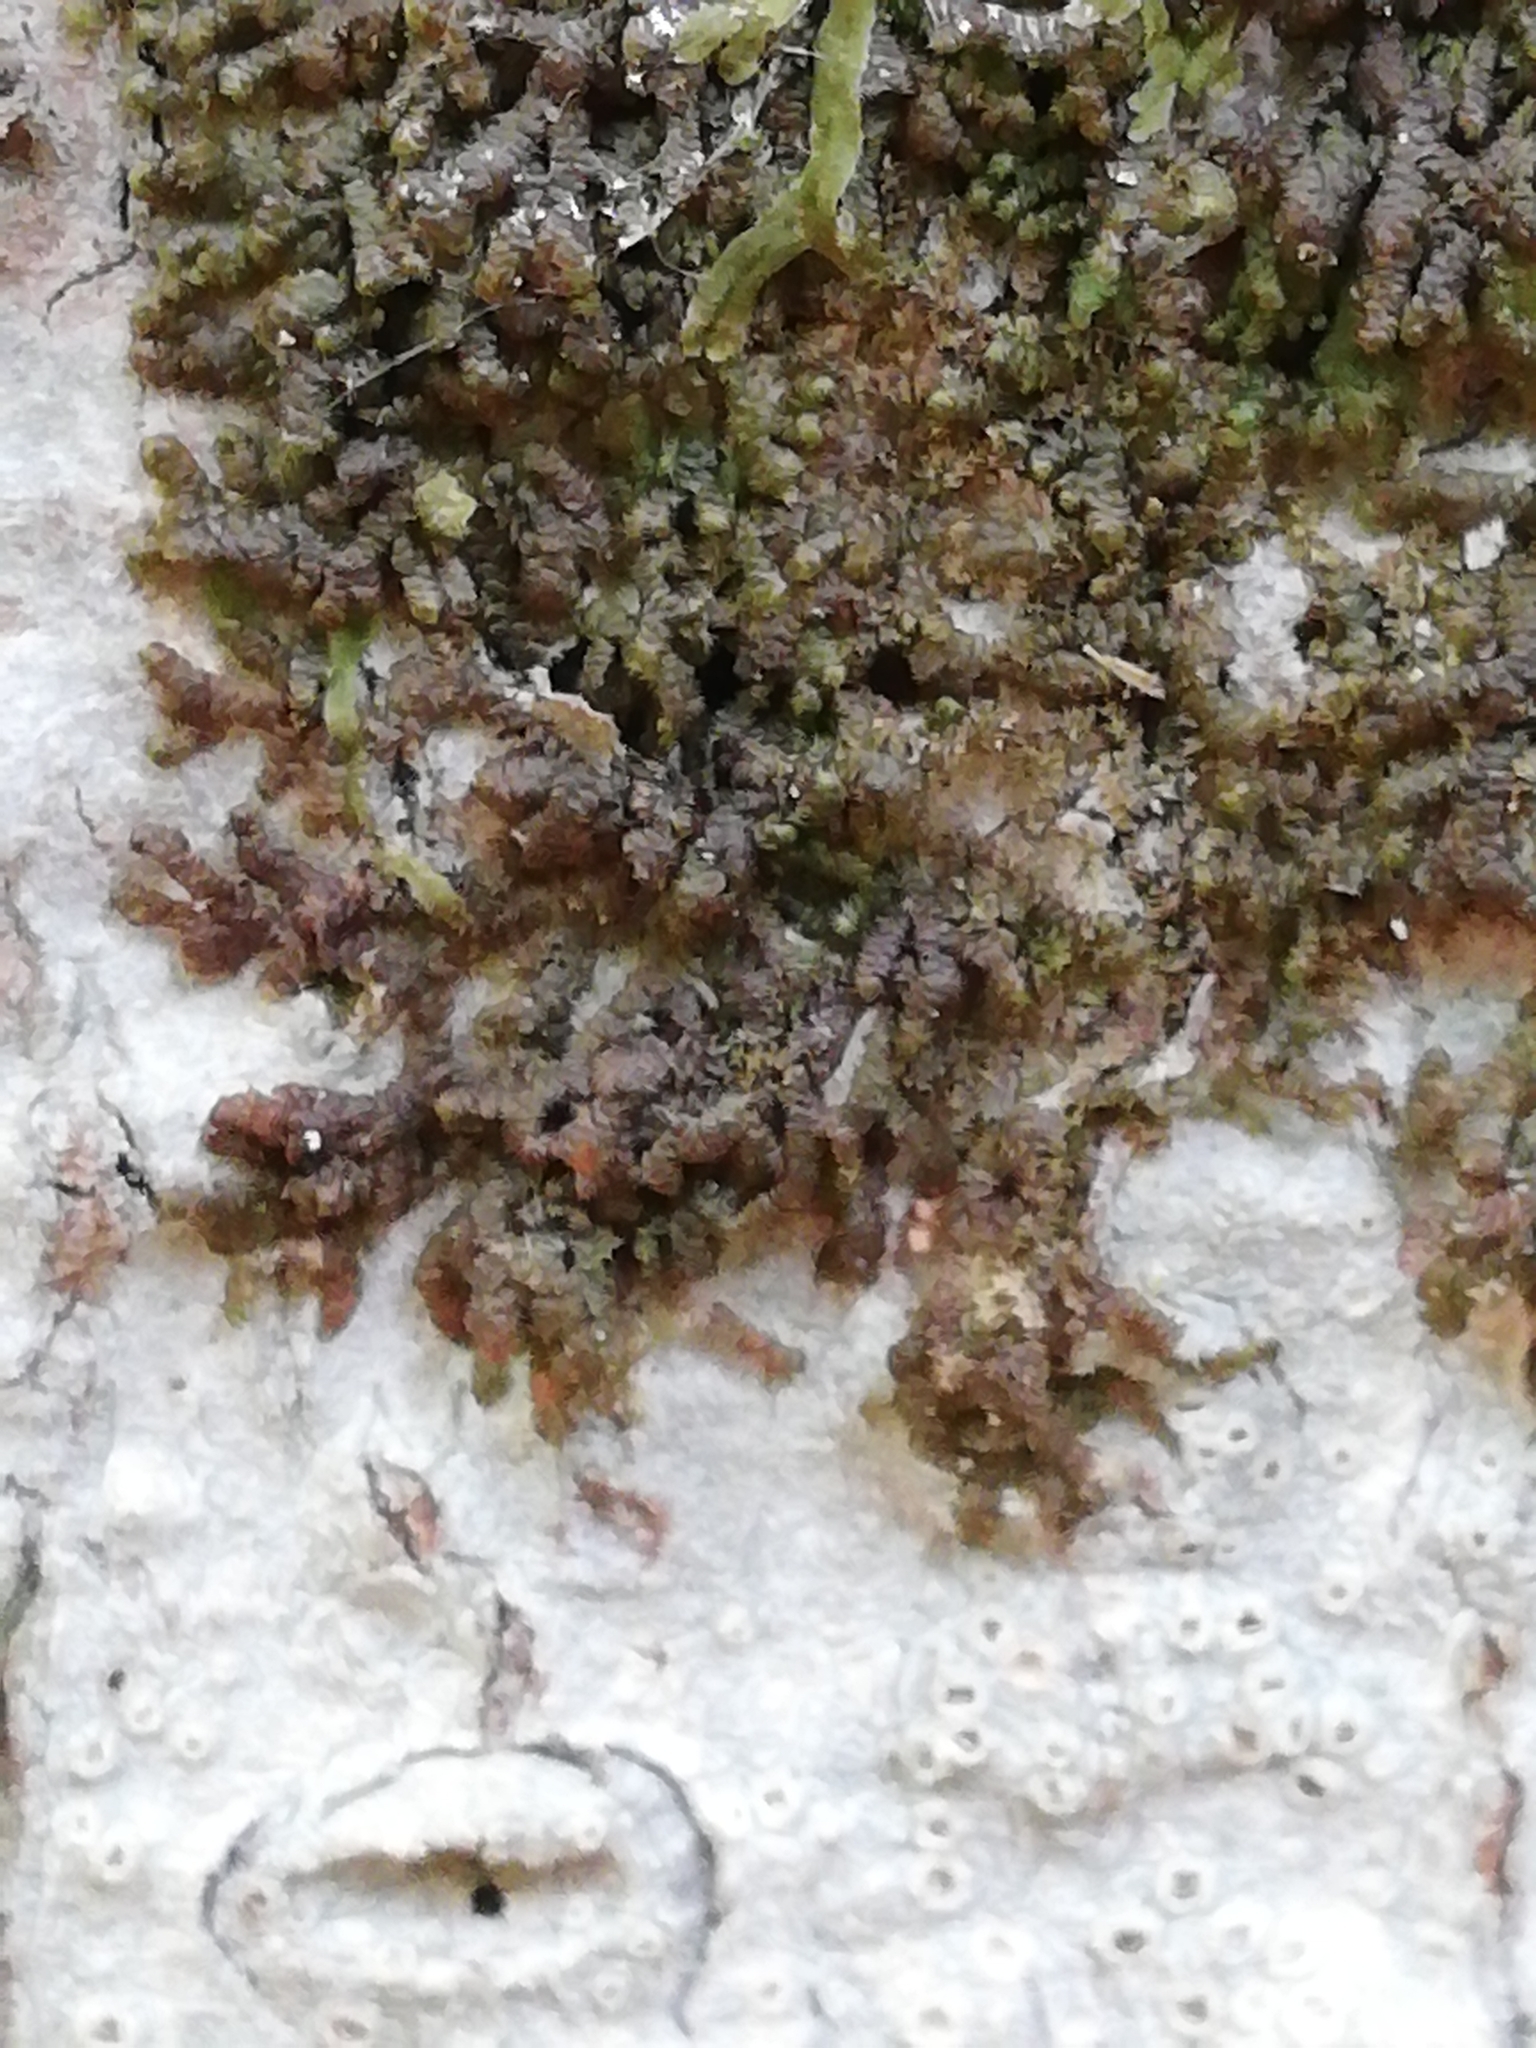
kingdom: Plantae
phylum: Marchantiophyta
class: Jungermanniopsida
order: Porellales
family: Frullaniaceae
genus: Frullania
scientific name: Frullania dilatata
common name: Dilated scalewort
